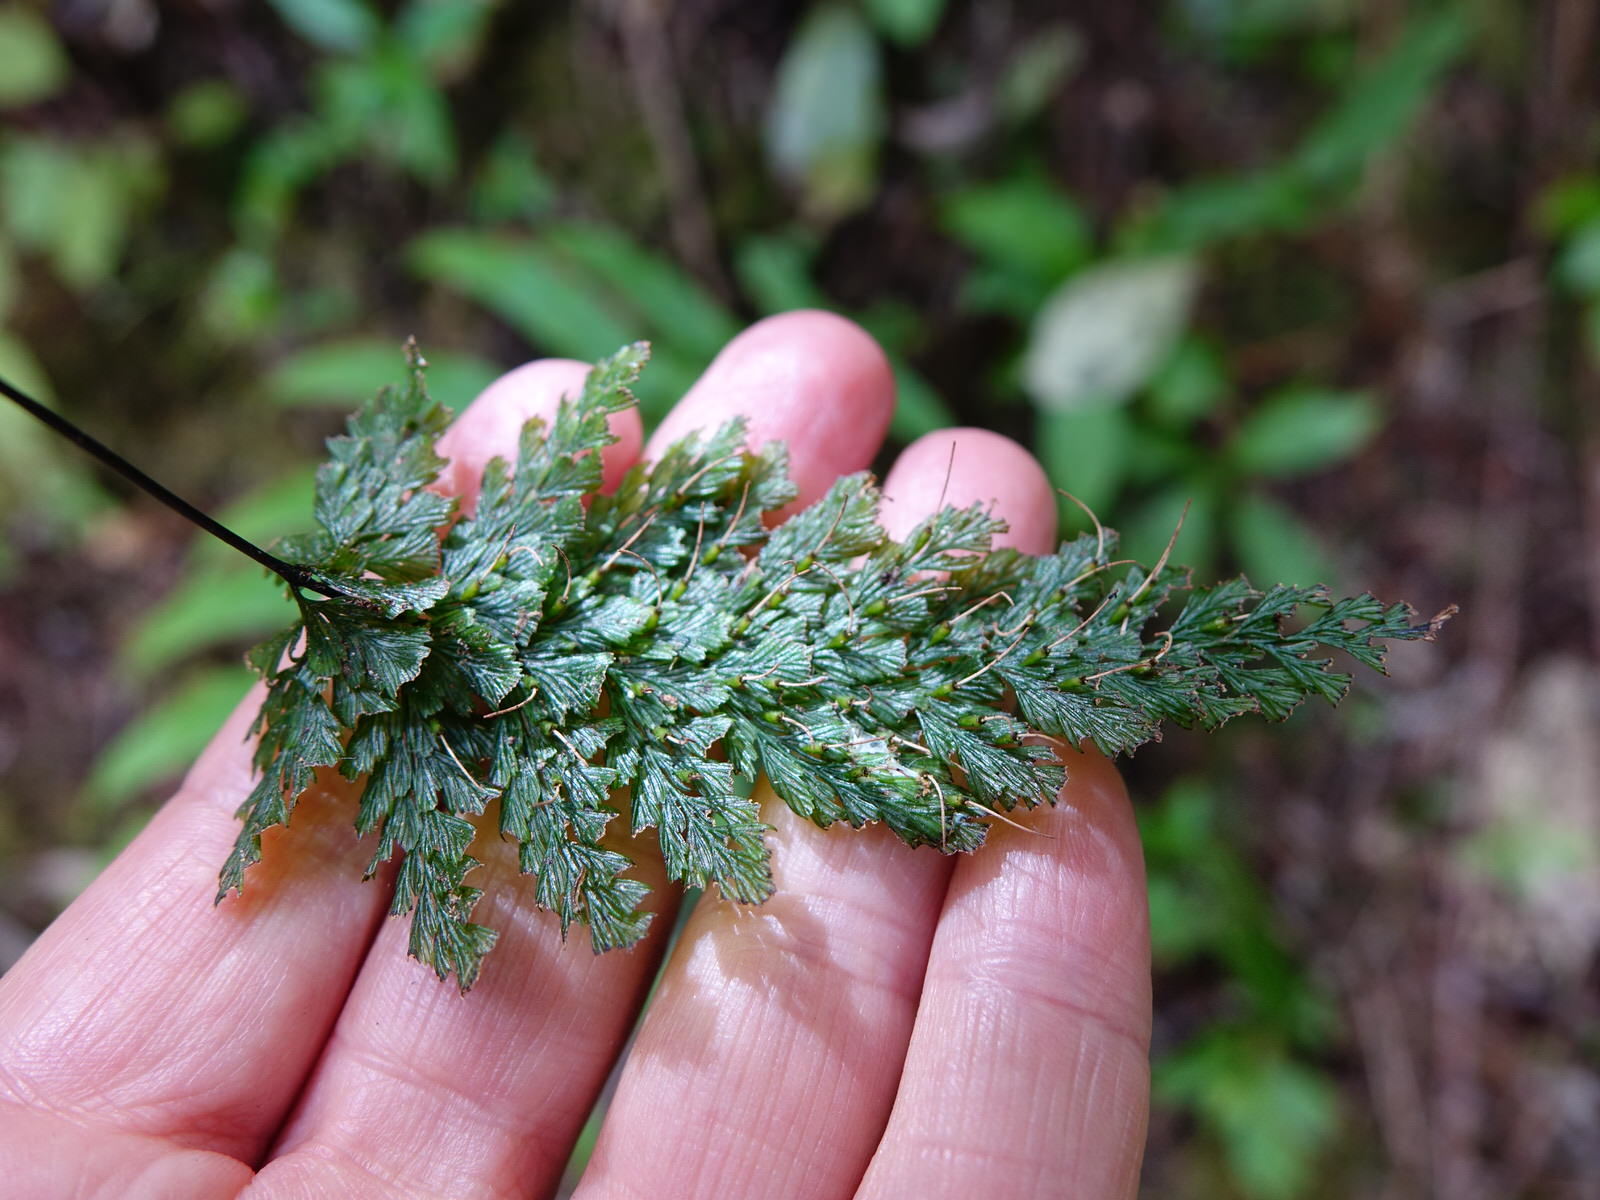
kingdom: Plantae
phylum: Tracheophyta
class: Polypodiopsida
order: Hymenophyllales
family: Hymenophyllaceae
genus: Abrodictyum
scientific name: Abrodictyum elongatum
